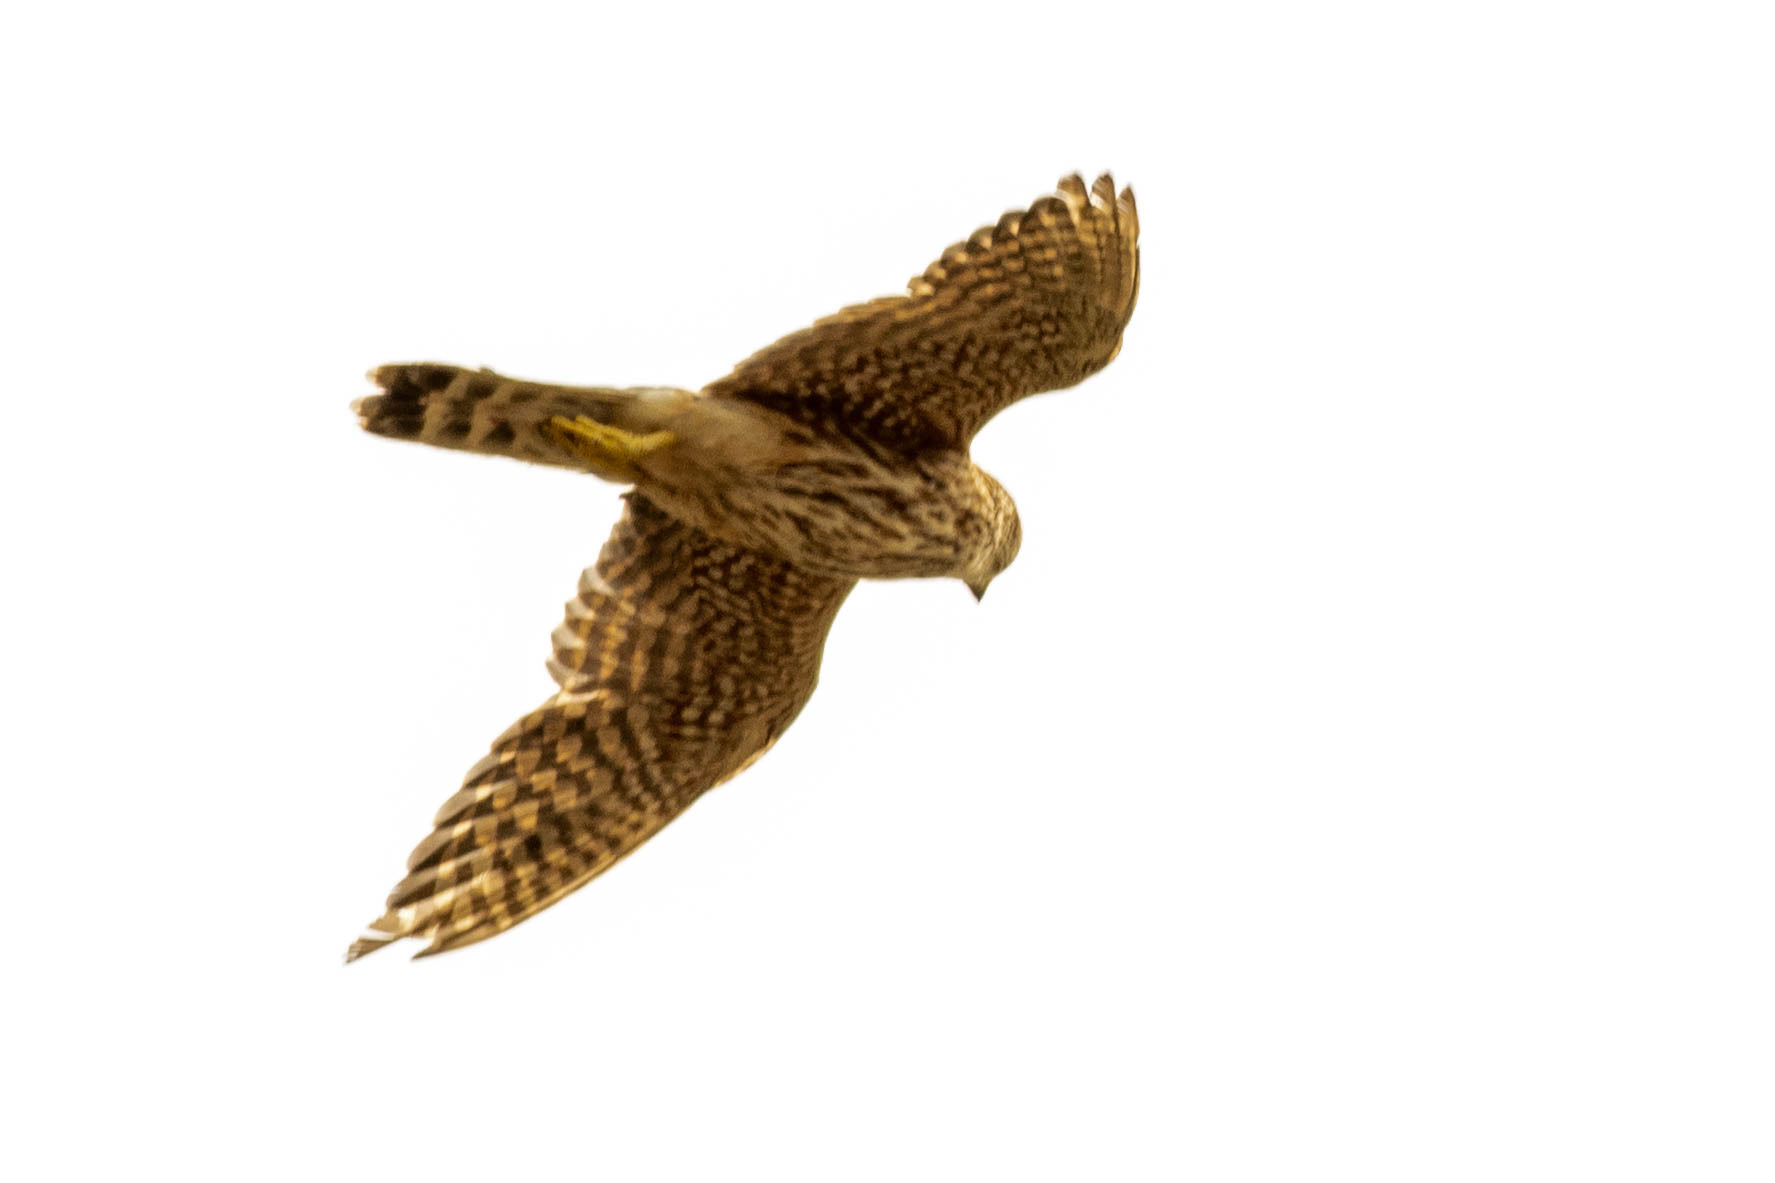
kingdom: Animalia
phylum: Chordata
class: Aves
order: Falconiformes
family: Falconidae
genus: Falco
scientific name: Falco columbarius
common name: Merlin
